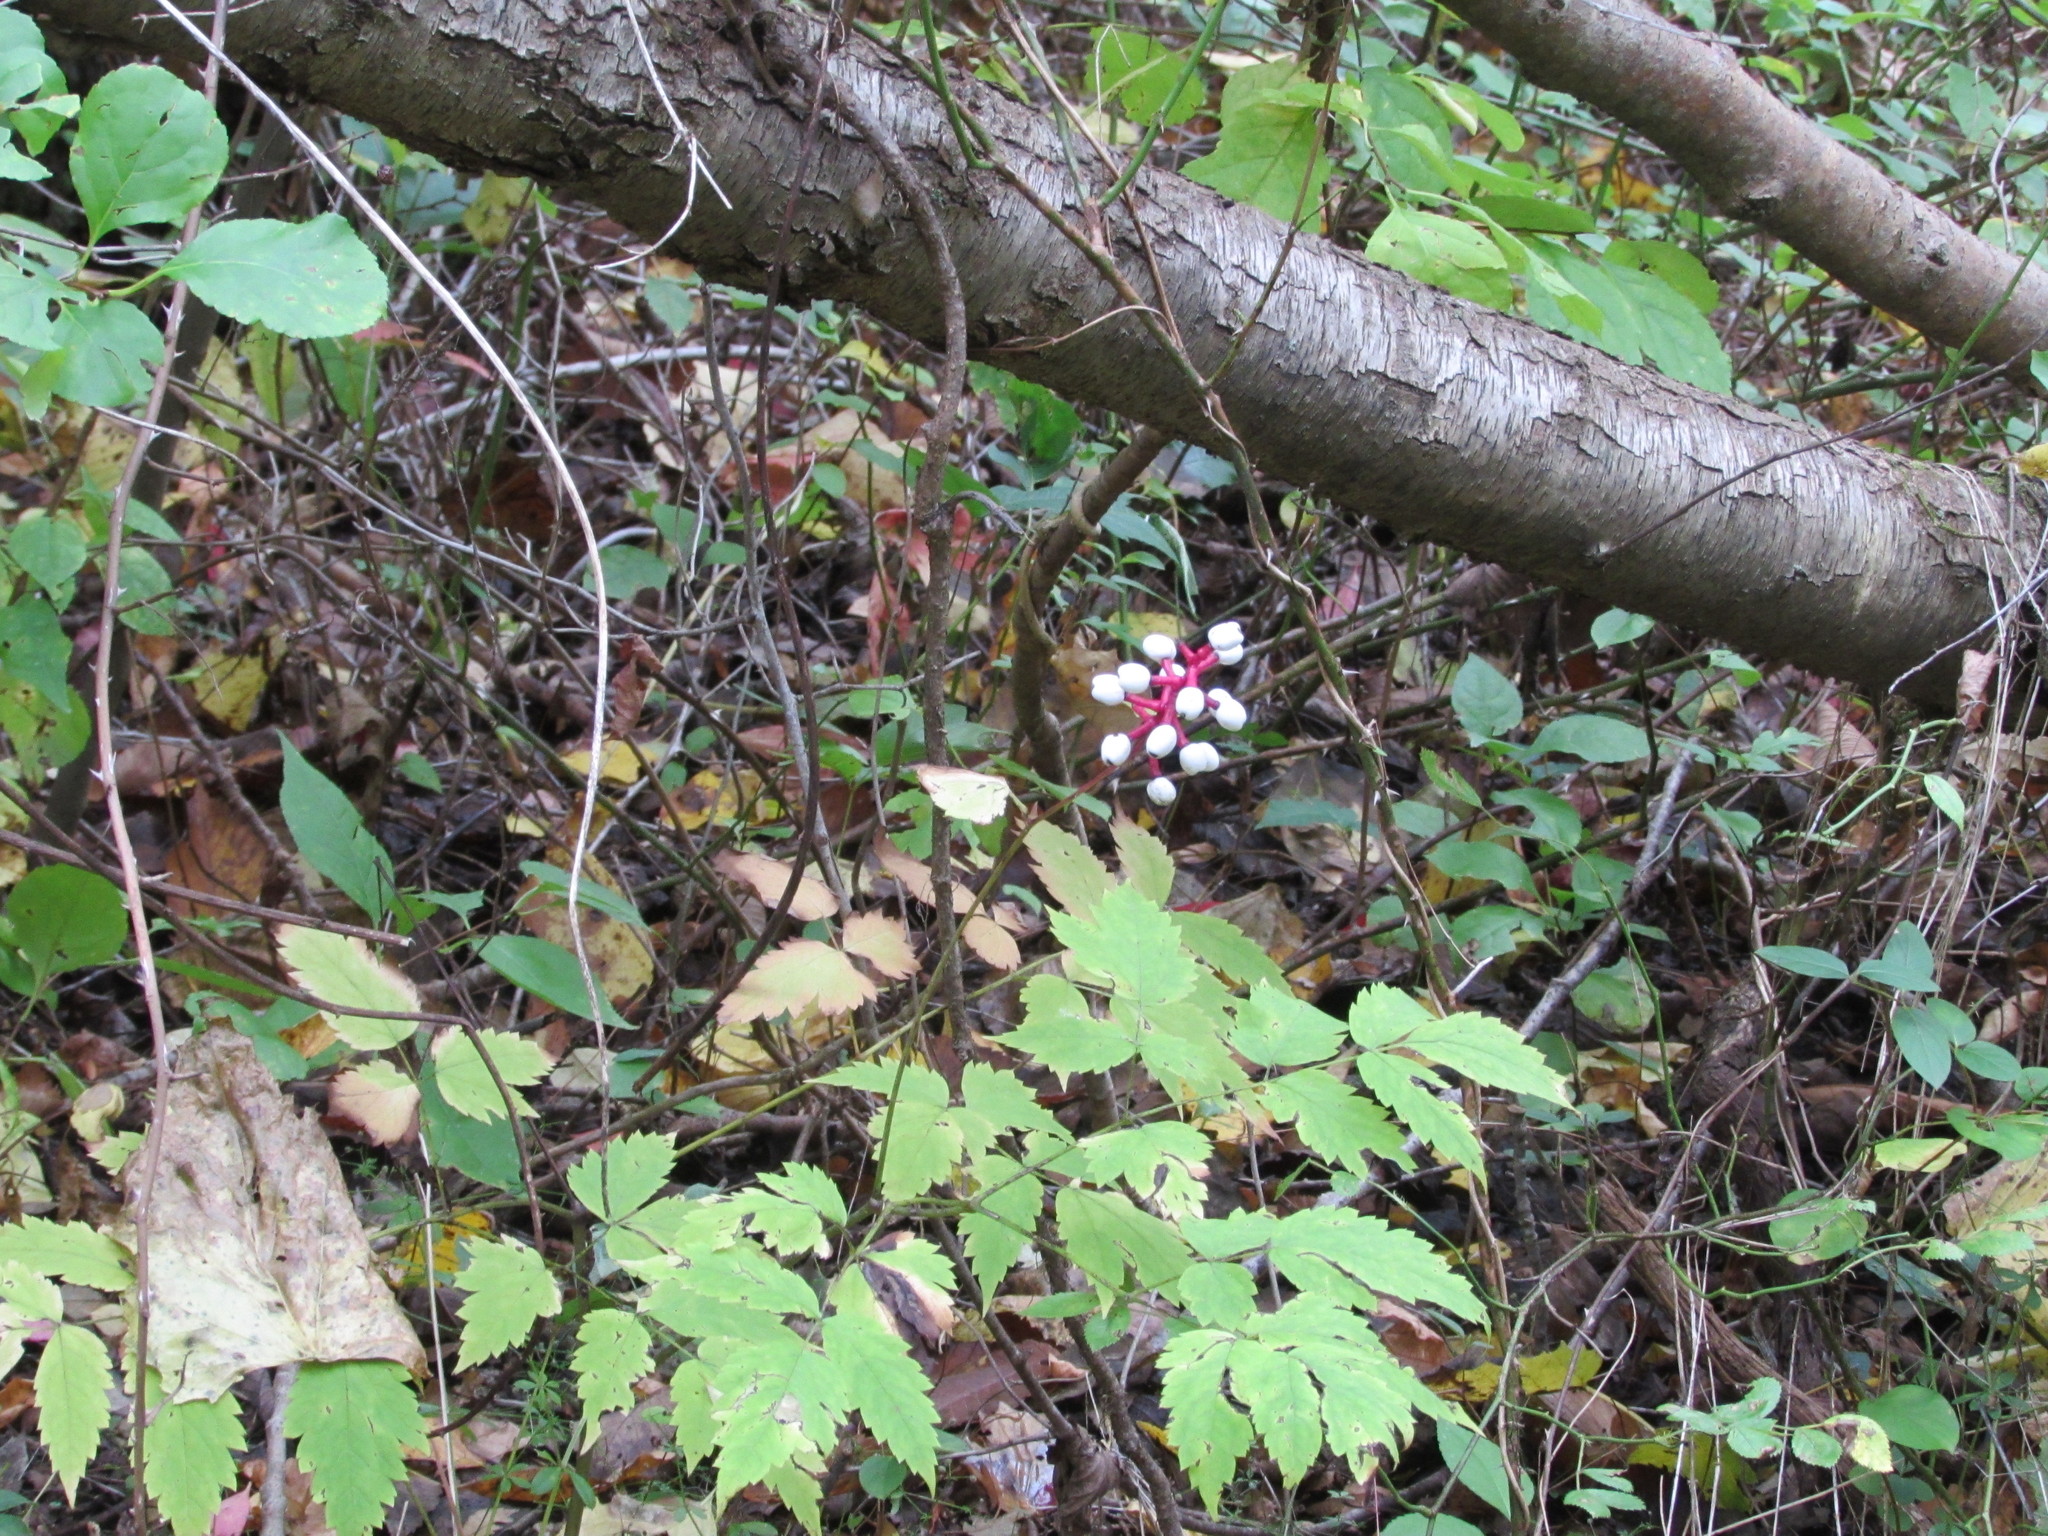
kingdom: Plantae
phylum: Tracheophyta
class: Magnoliopsida
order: Ranunculales
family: Ranunculaceae
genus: Actaea
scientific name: Actaea pachypoda
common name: Doll's-eyes
